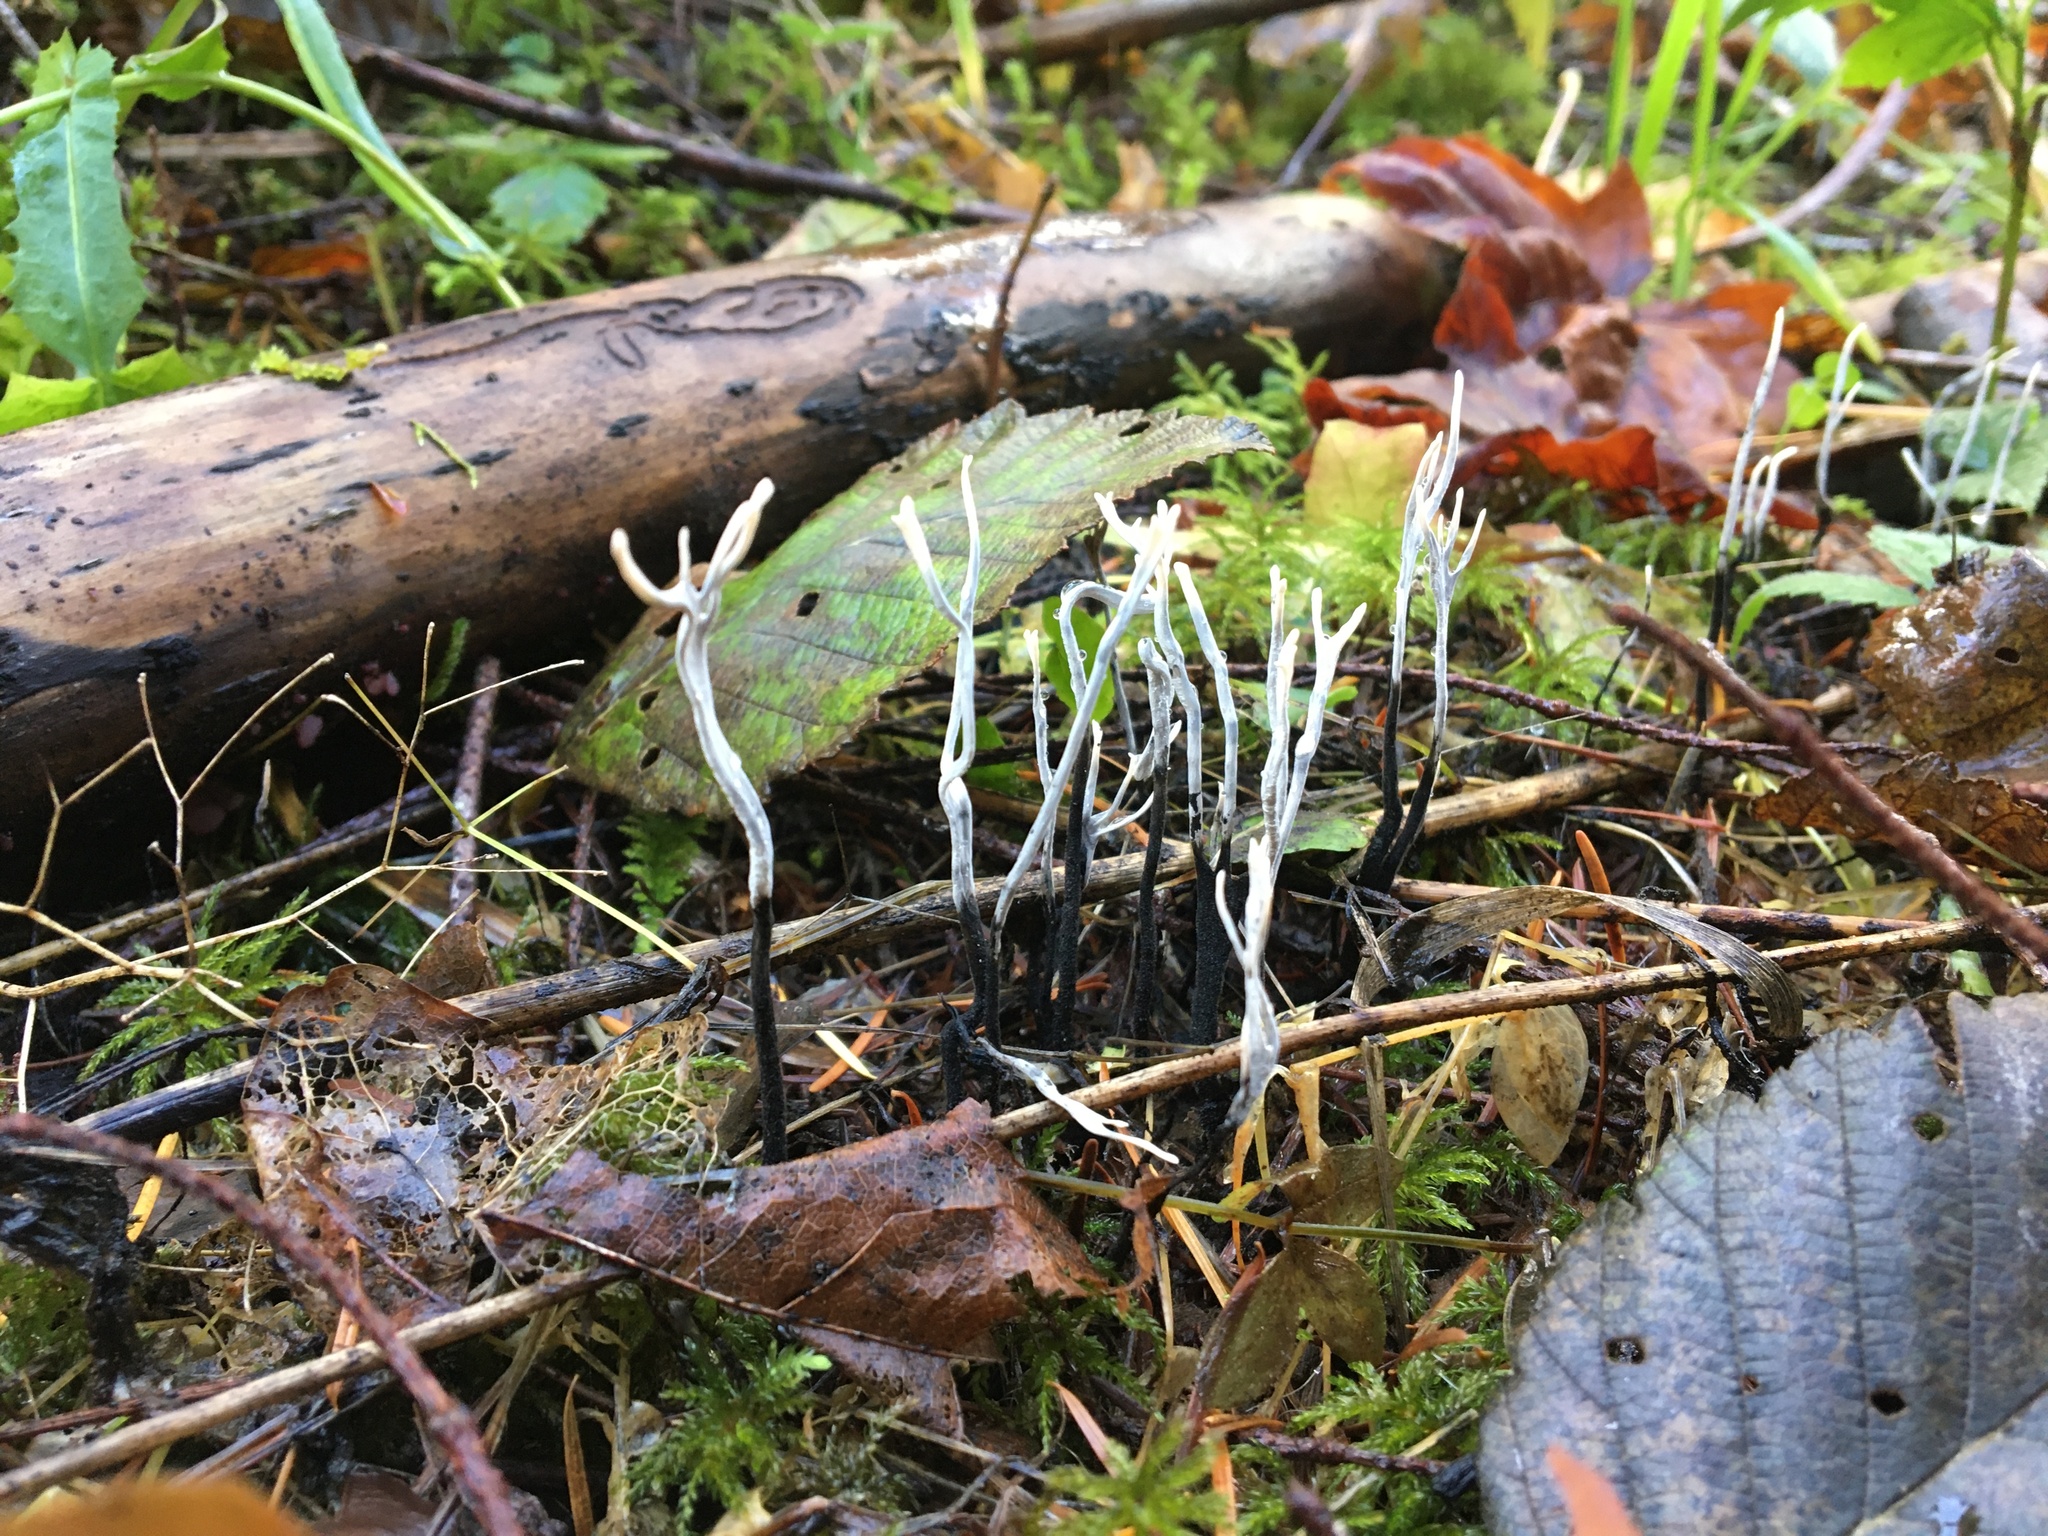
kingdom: Fungi
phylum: Ascomycota
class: Sordariomycetes
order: Xylariales
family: Xylariaceae
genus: Xylaria
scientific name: Xylaria hypoxylon
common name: Candle-snuff fungus
